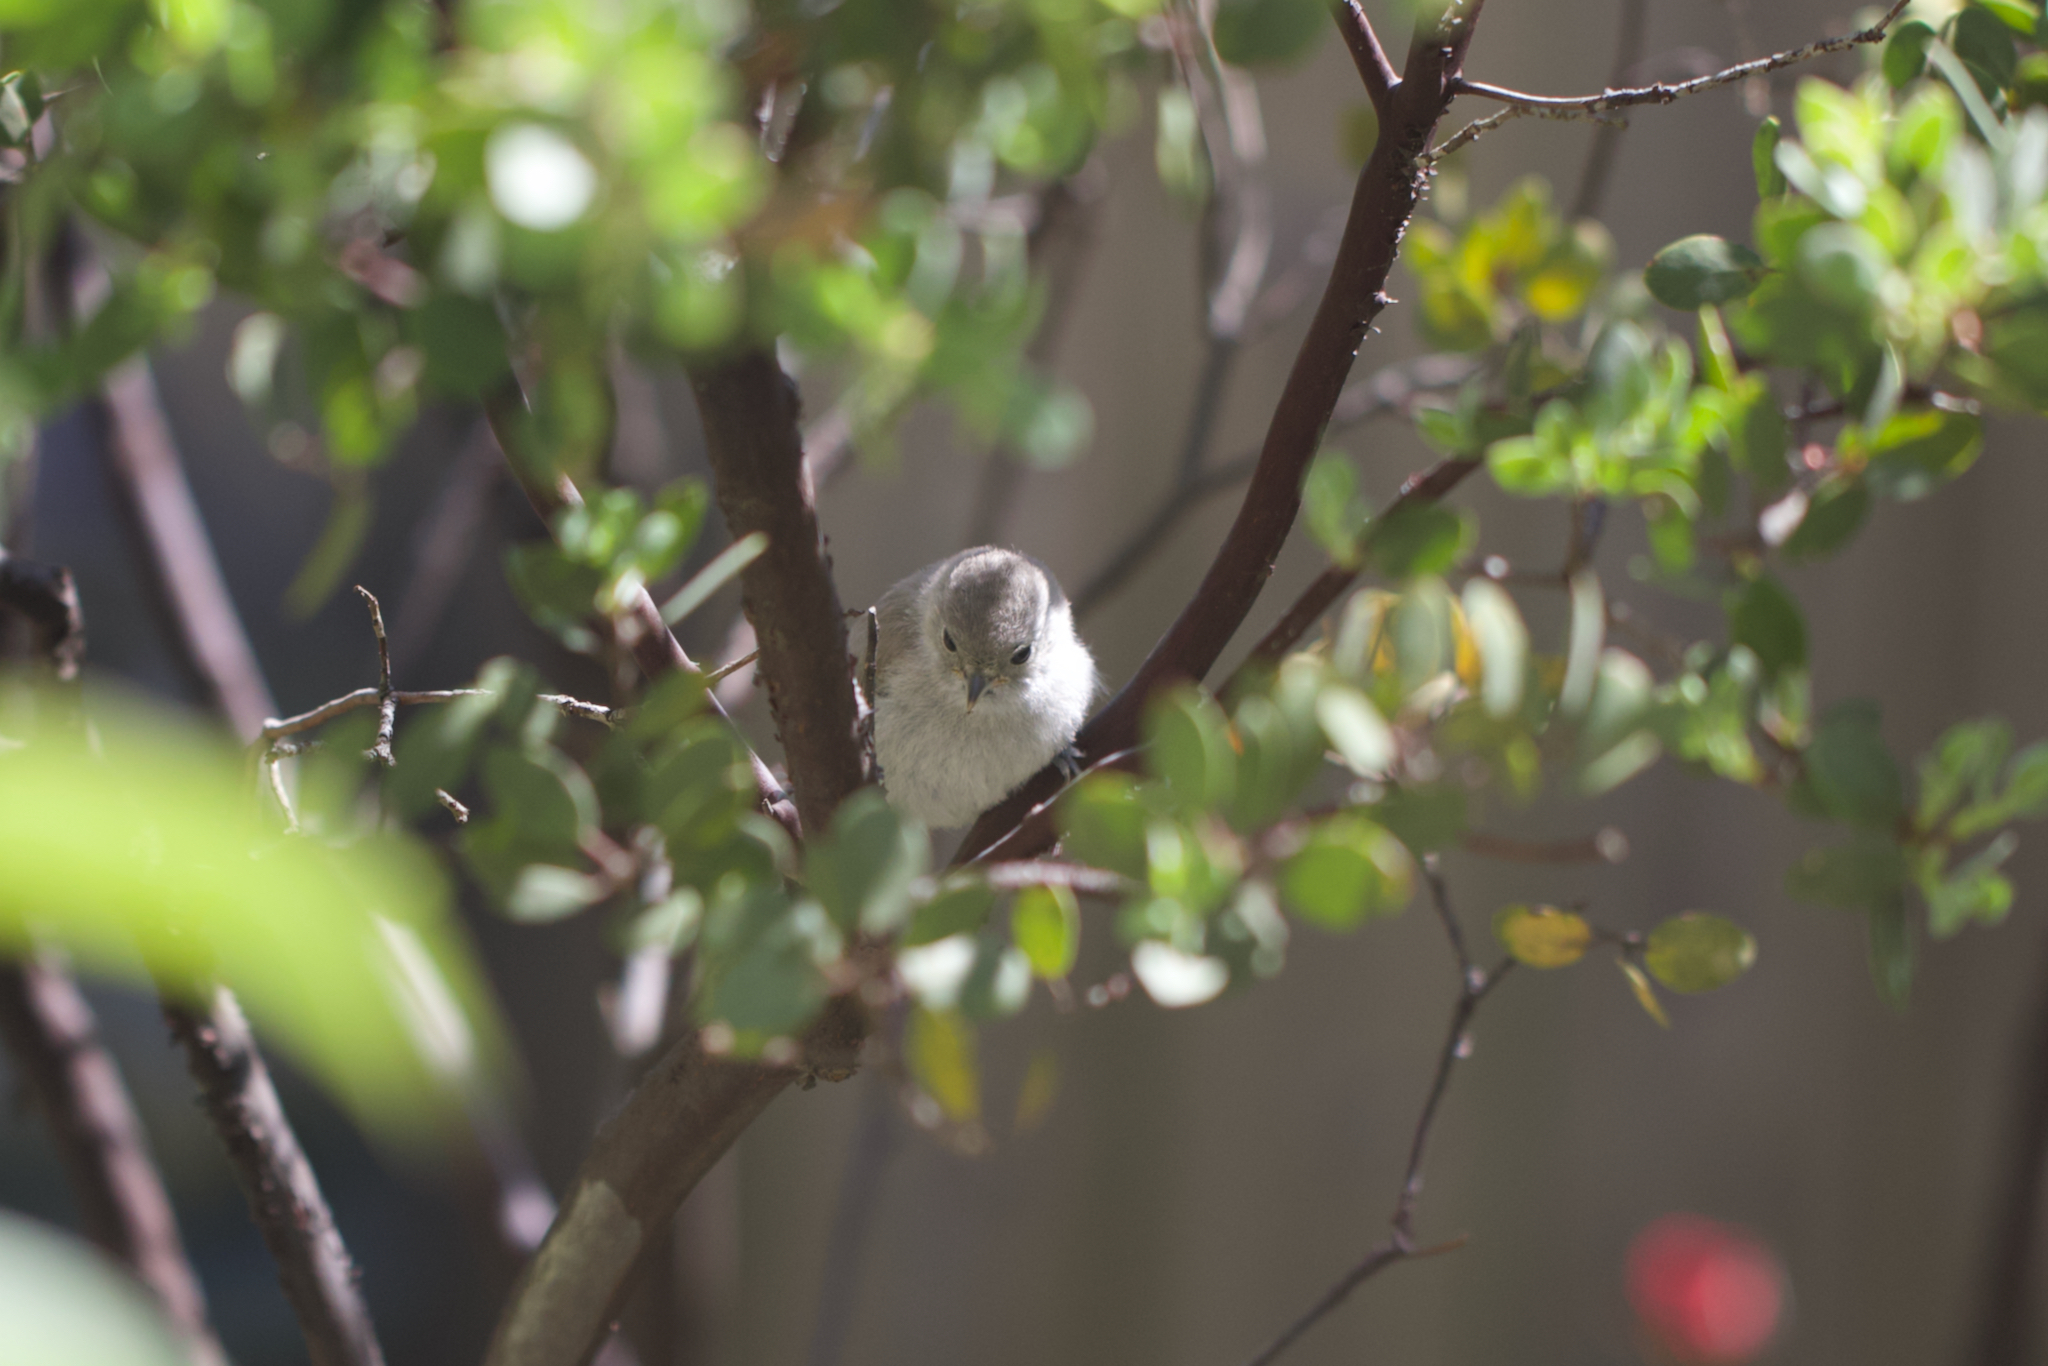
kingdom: Animalia
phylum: Chordata
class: Aves
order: Passeriformes
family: Paridae
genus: Baeolophus
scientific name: Baeolophus inornatus
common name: Oak titmouse
